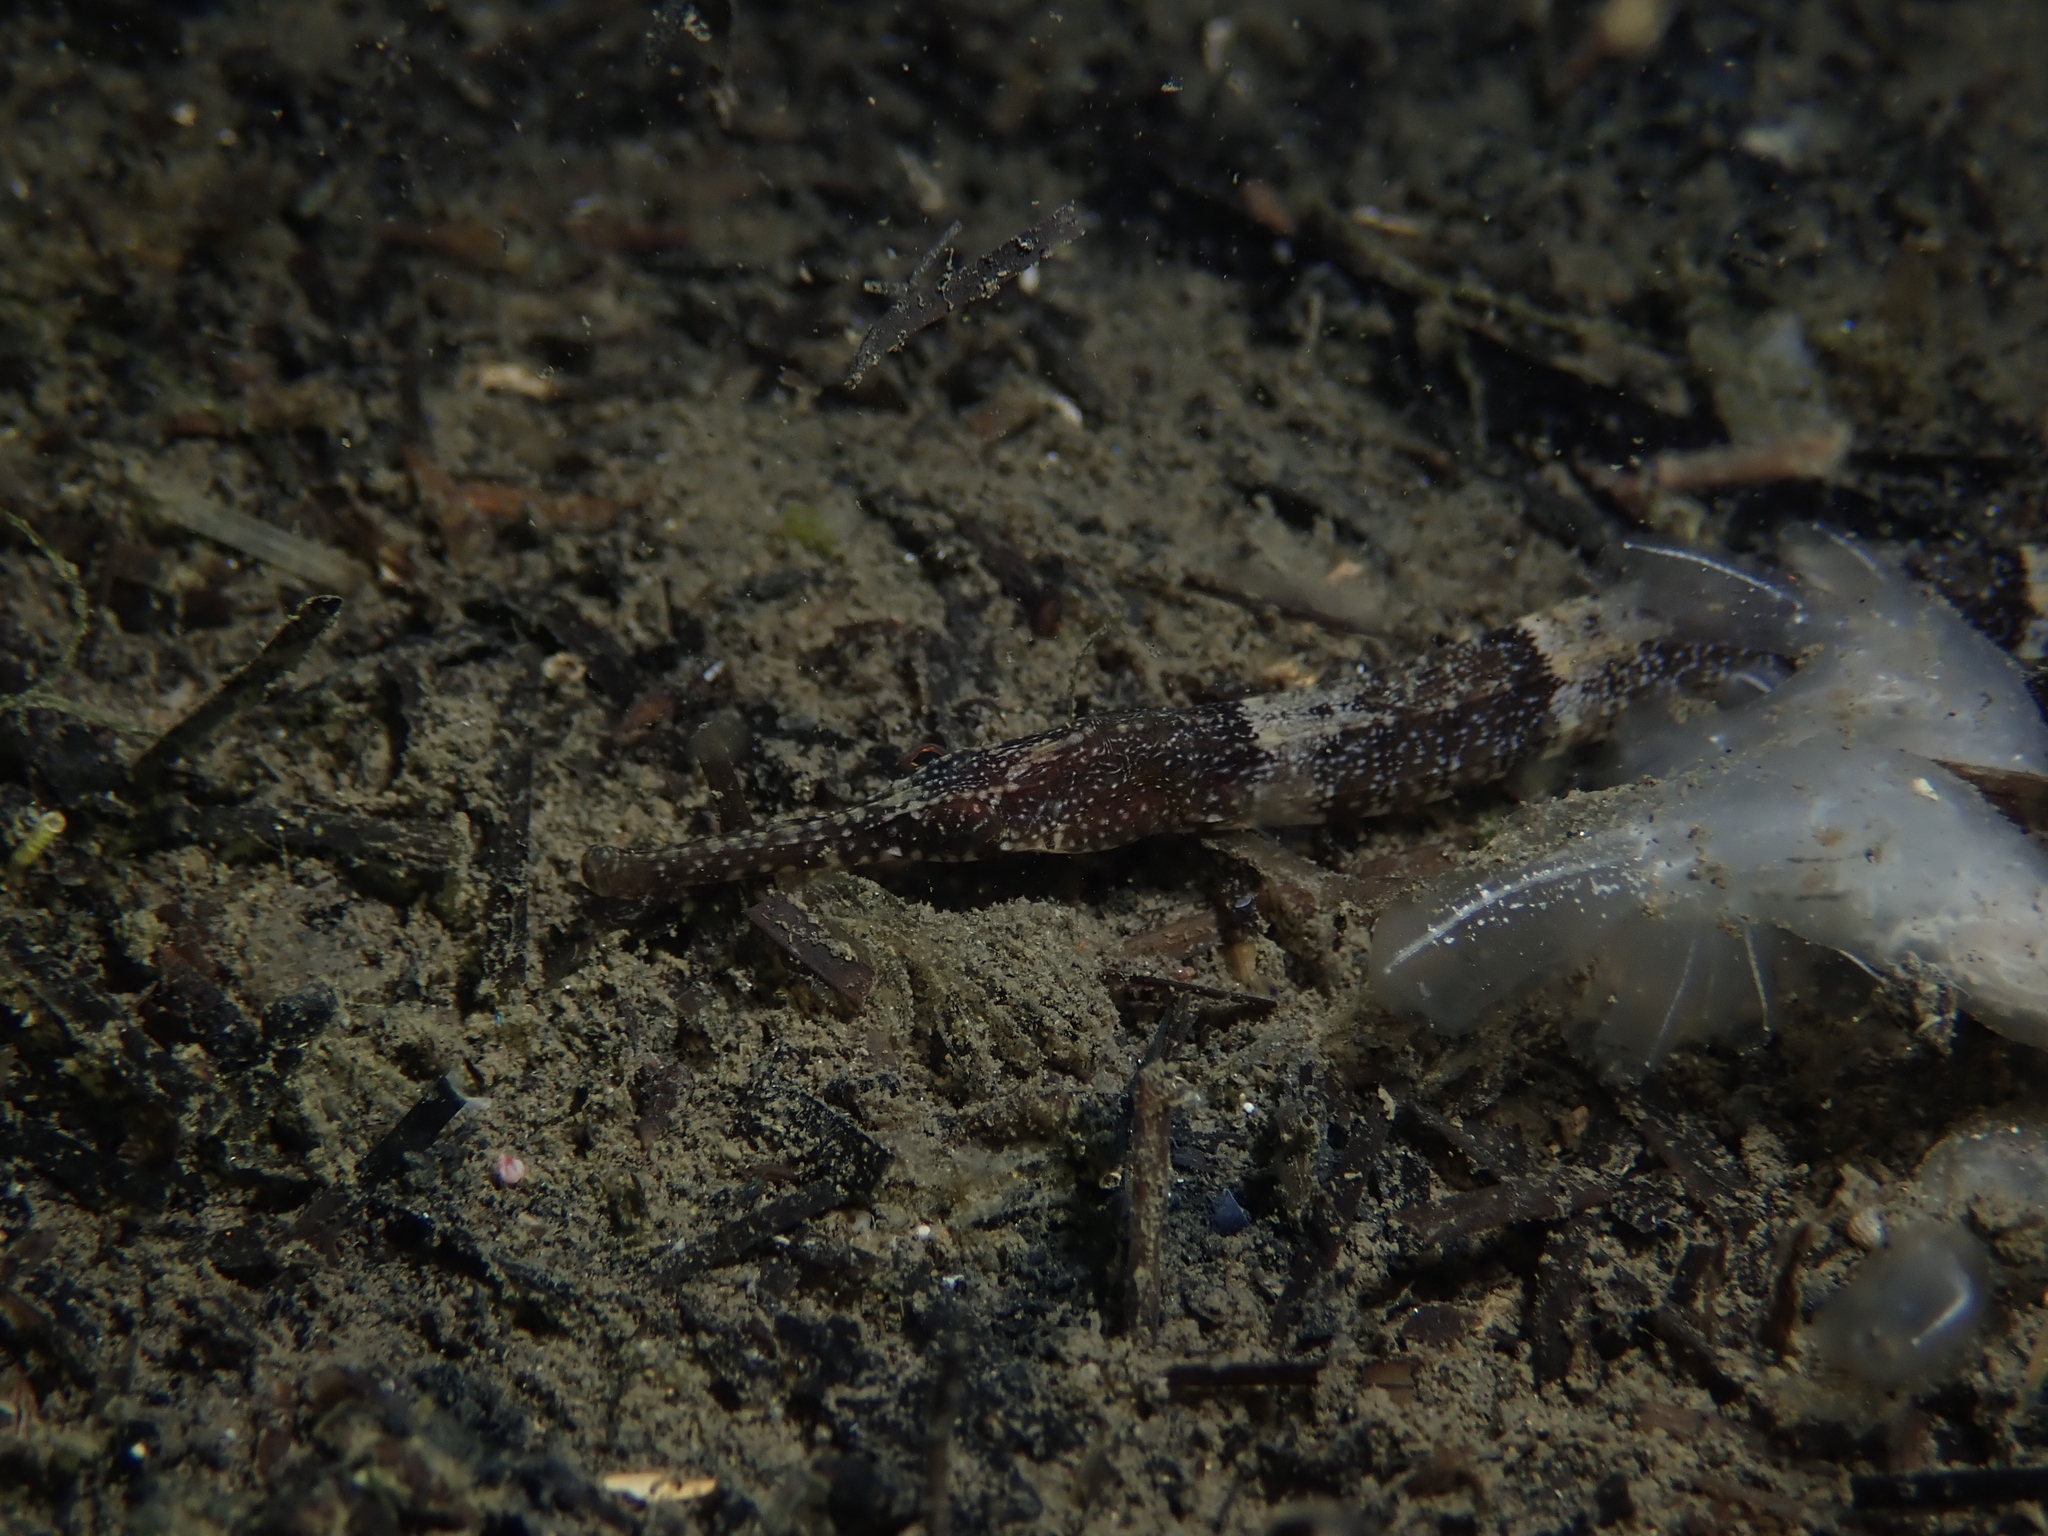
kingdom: Animalia
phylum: Chordata
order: Syngnathiformes
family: Syngnathidae
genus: Syngnathus
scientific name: Syngnathus tenuirostris
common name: Narrow-snouted pipefish
